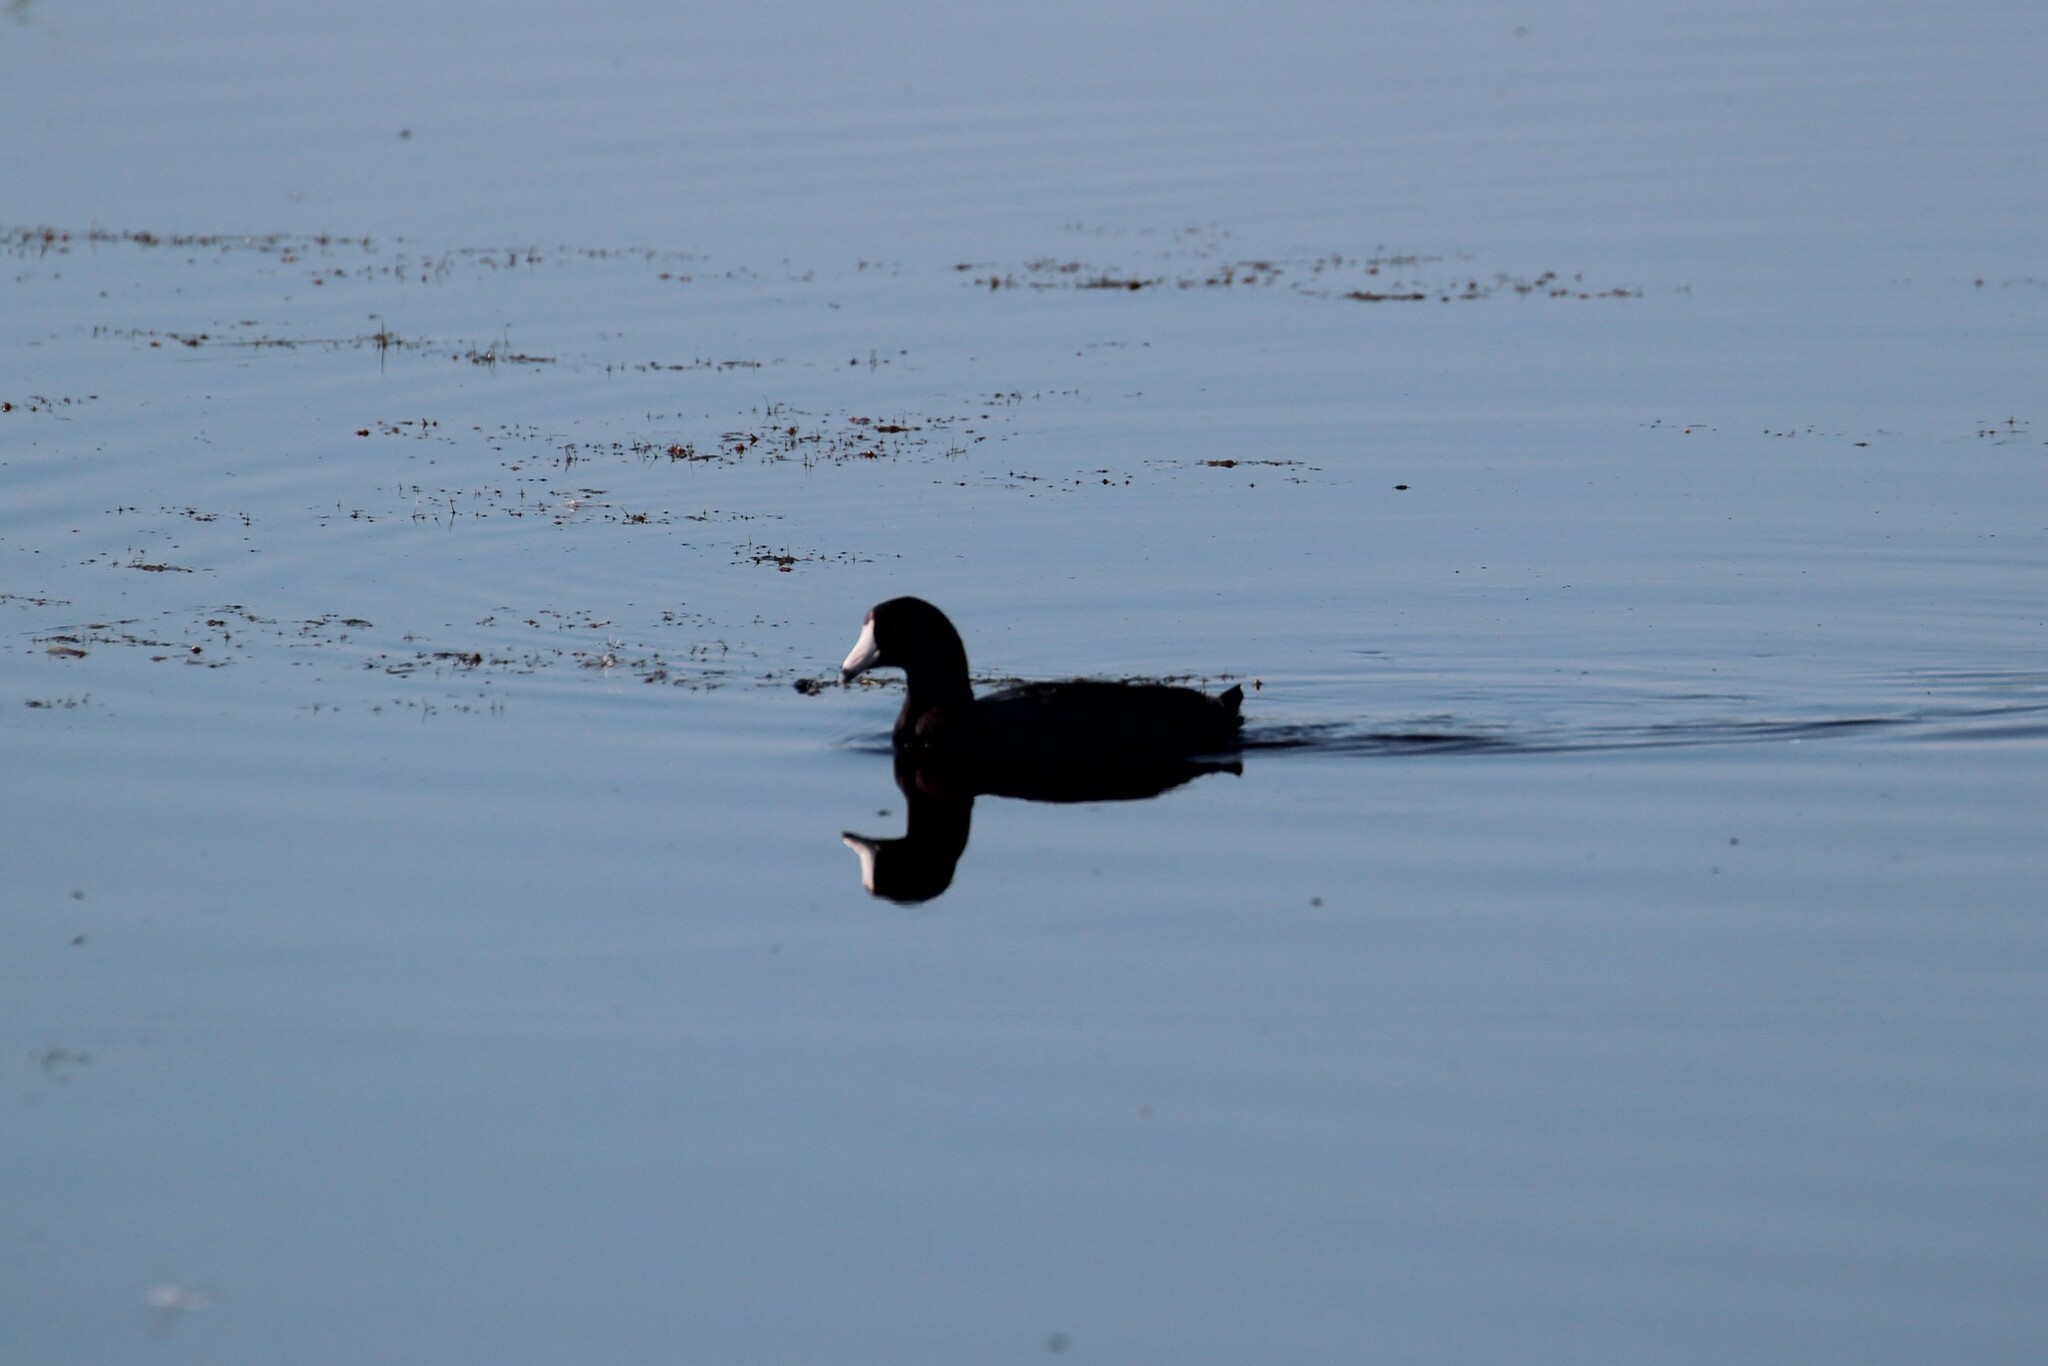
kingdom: Animalia
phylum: Chordata
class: Aves
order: Gruiformes
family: Rallidae
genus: Fulica
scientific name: Fulica americana
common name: American coot
